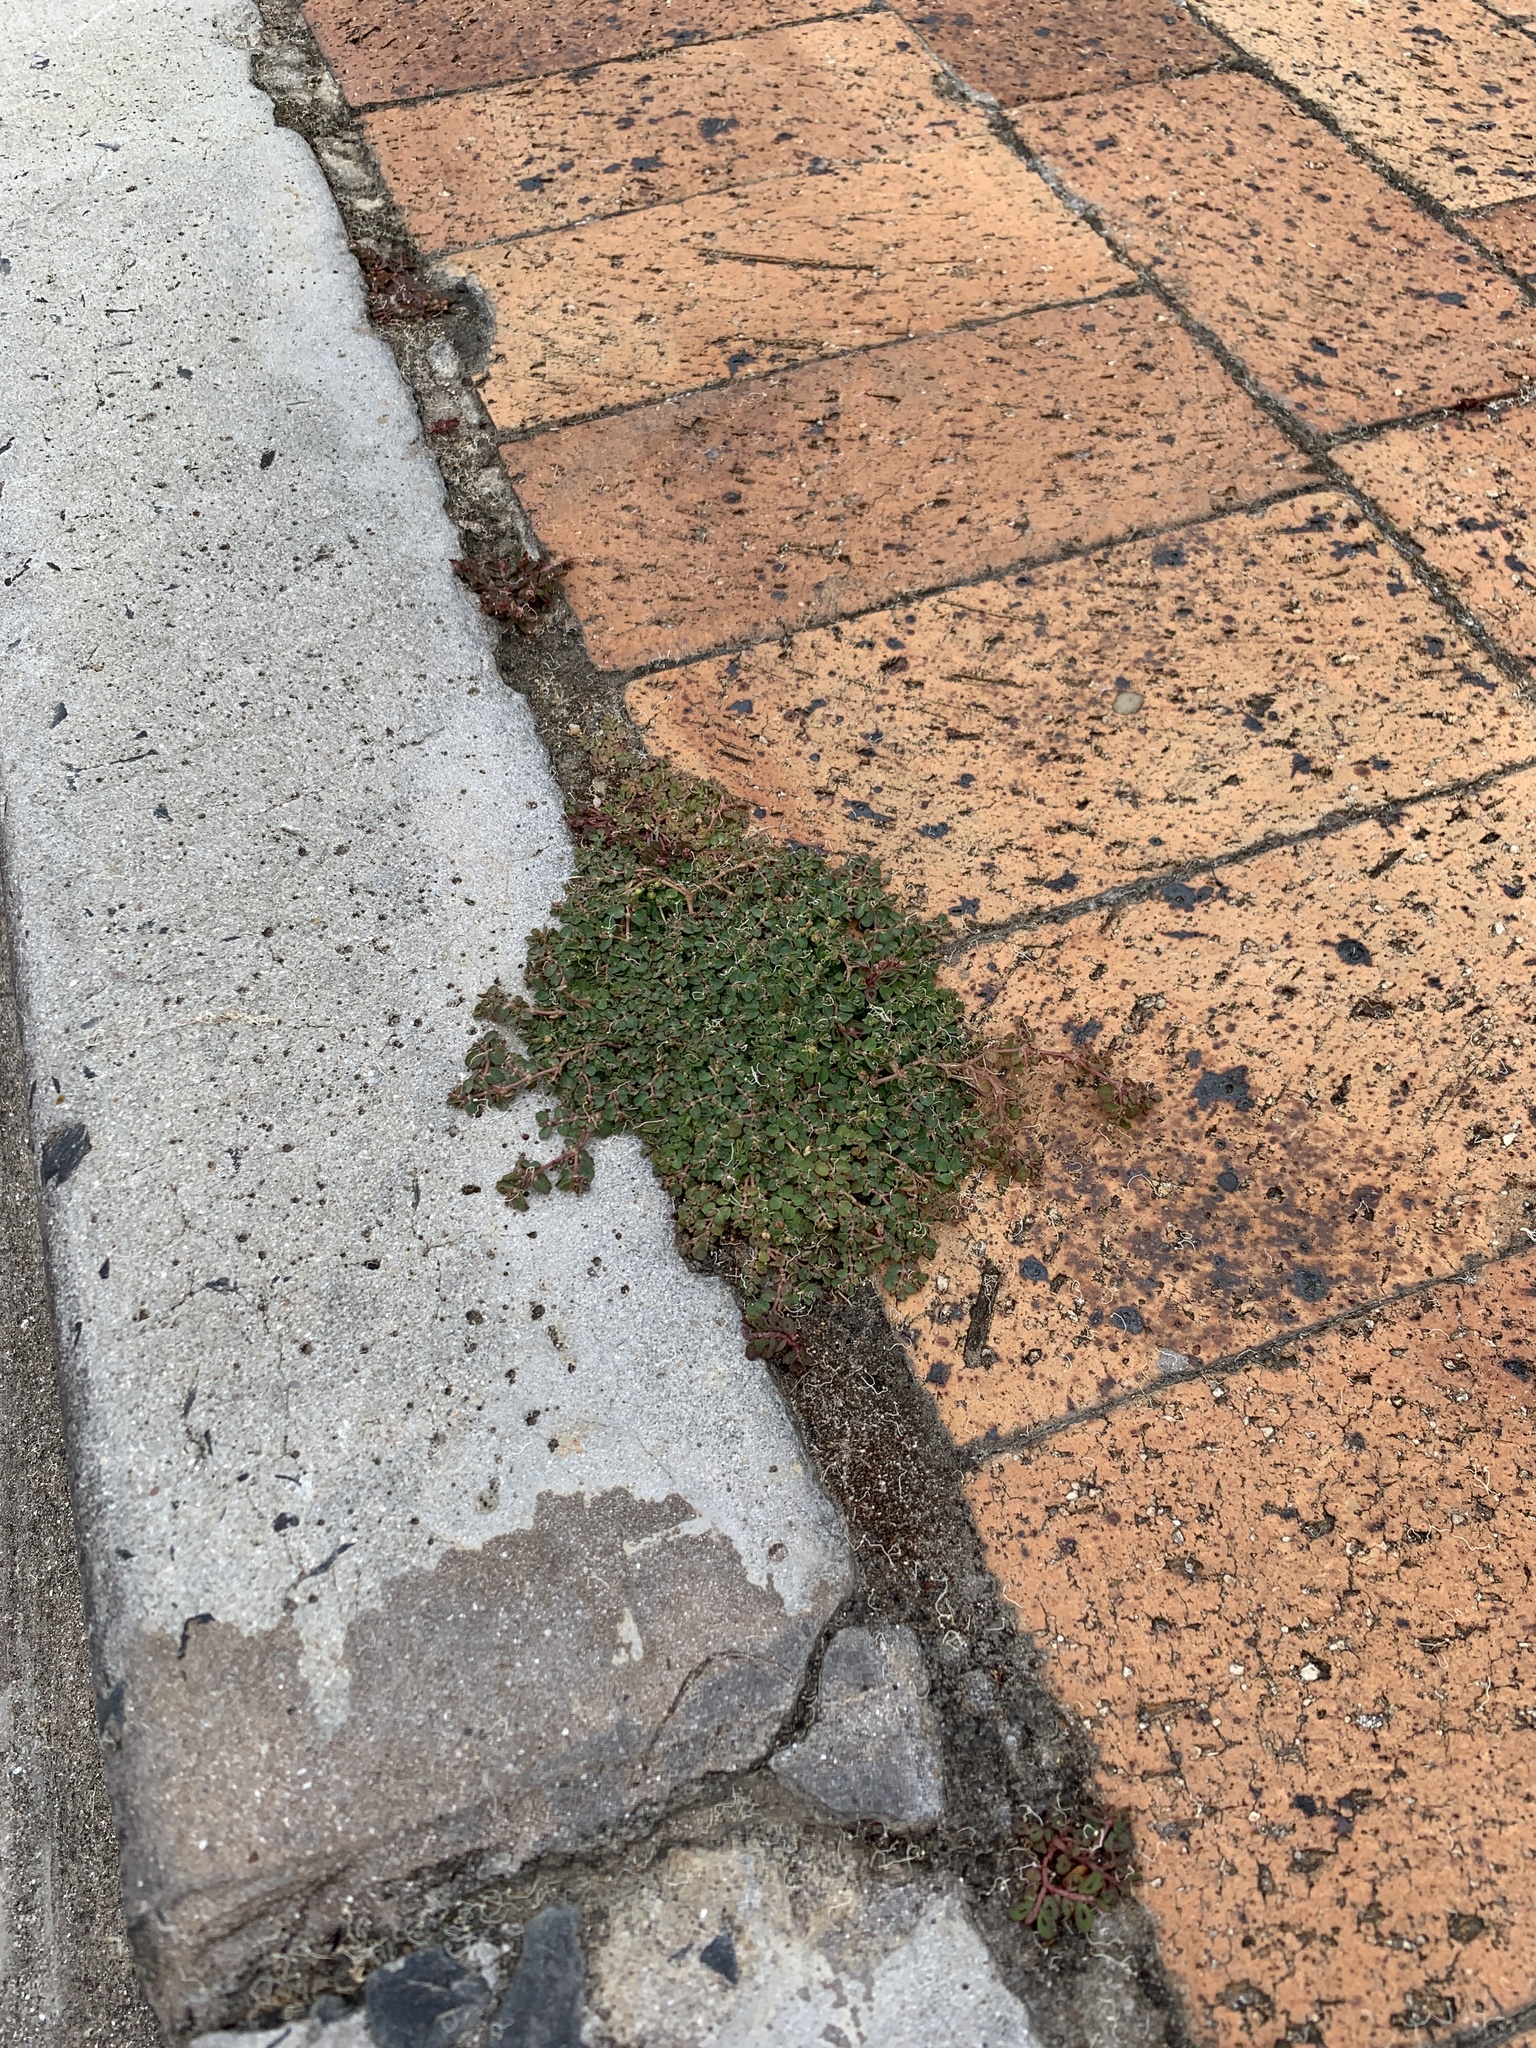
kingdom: Plantae
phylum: Tracheophyta
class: Magnoliopsida
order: Malpighiales
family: Euphorbiaceae
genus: Euphorbia
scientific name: Euphorbia serpens
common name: Matted sandmat
